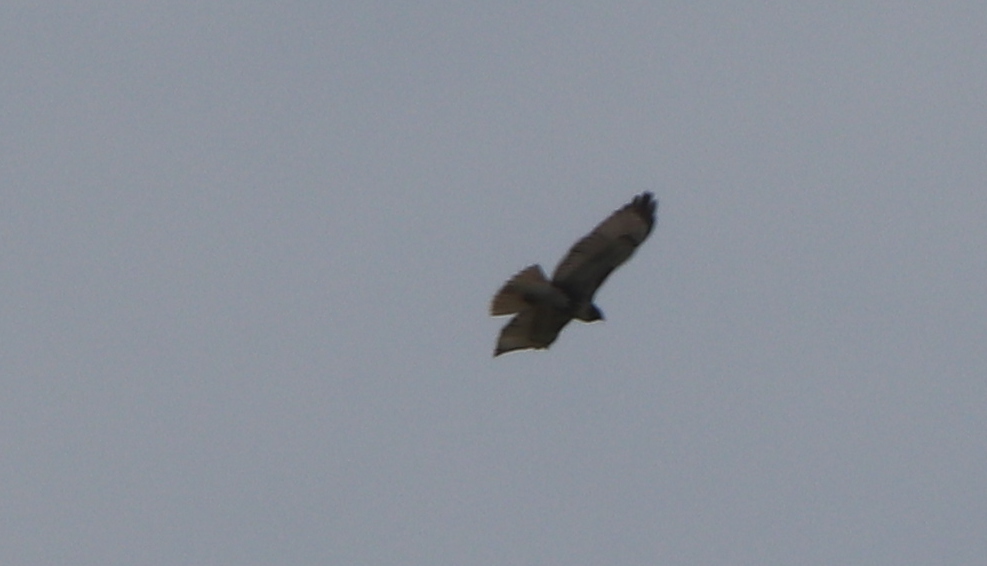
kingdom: Animalia
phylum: Chordata
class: Aves
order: Accipitriformes
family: Accipitridae
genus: Buteo
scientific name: Buteo jamaicensis
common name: Red-tailed hawk
